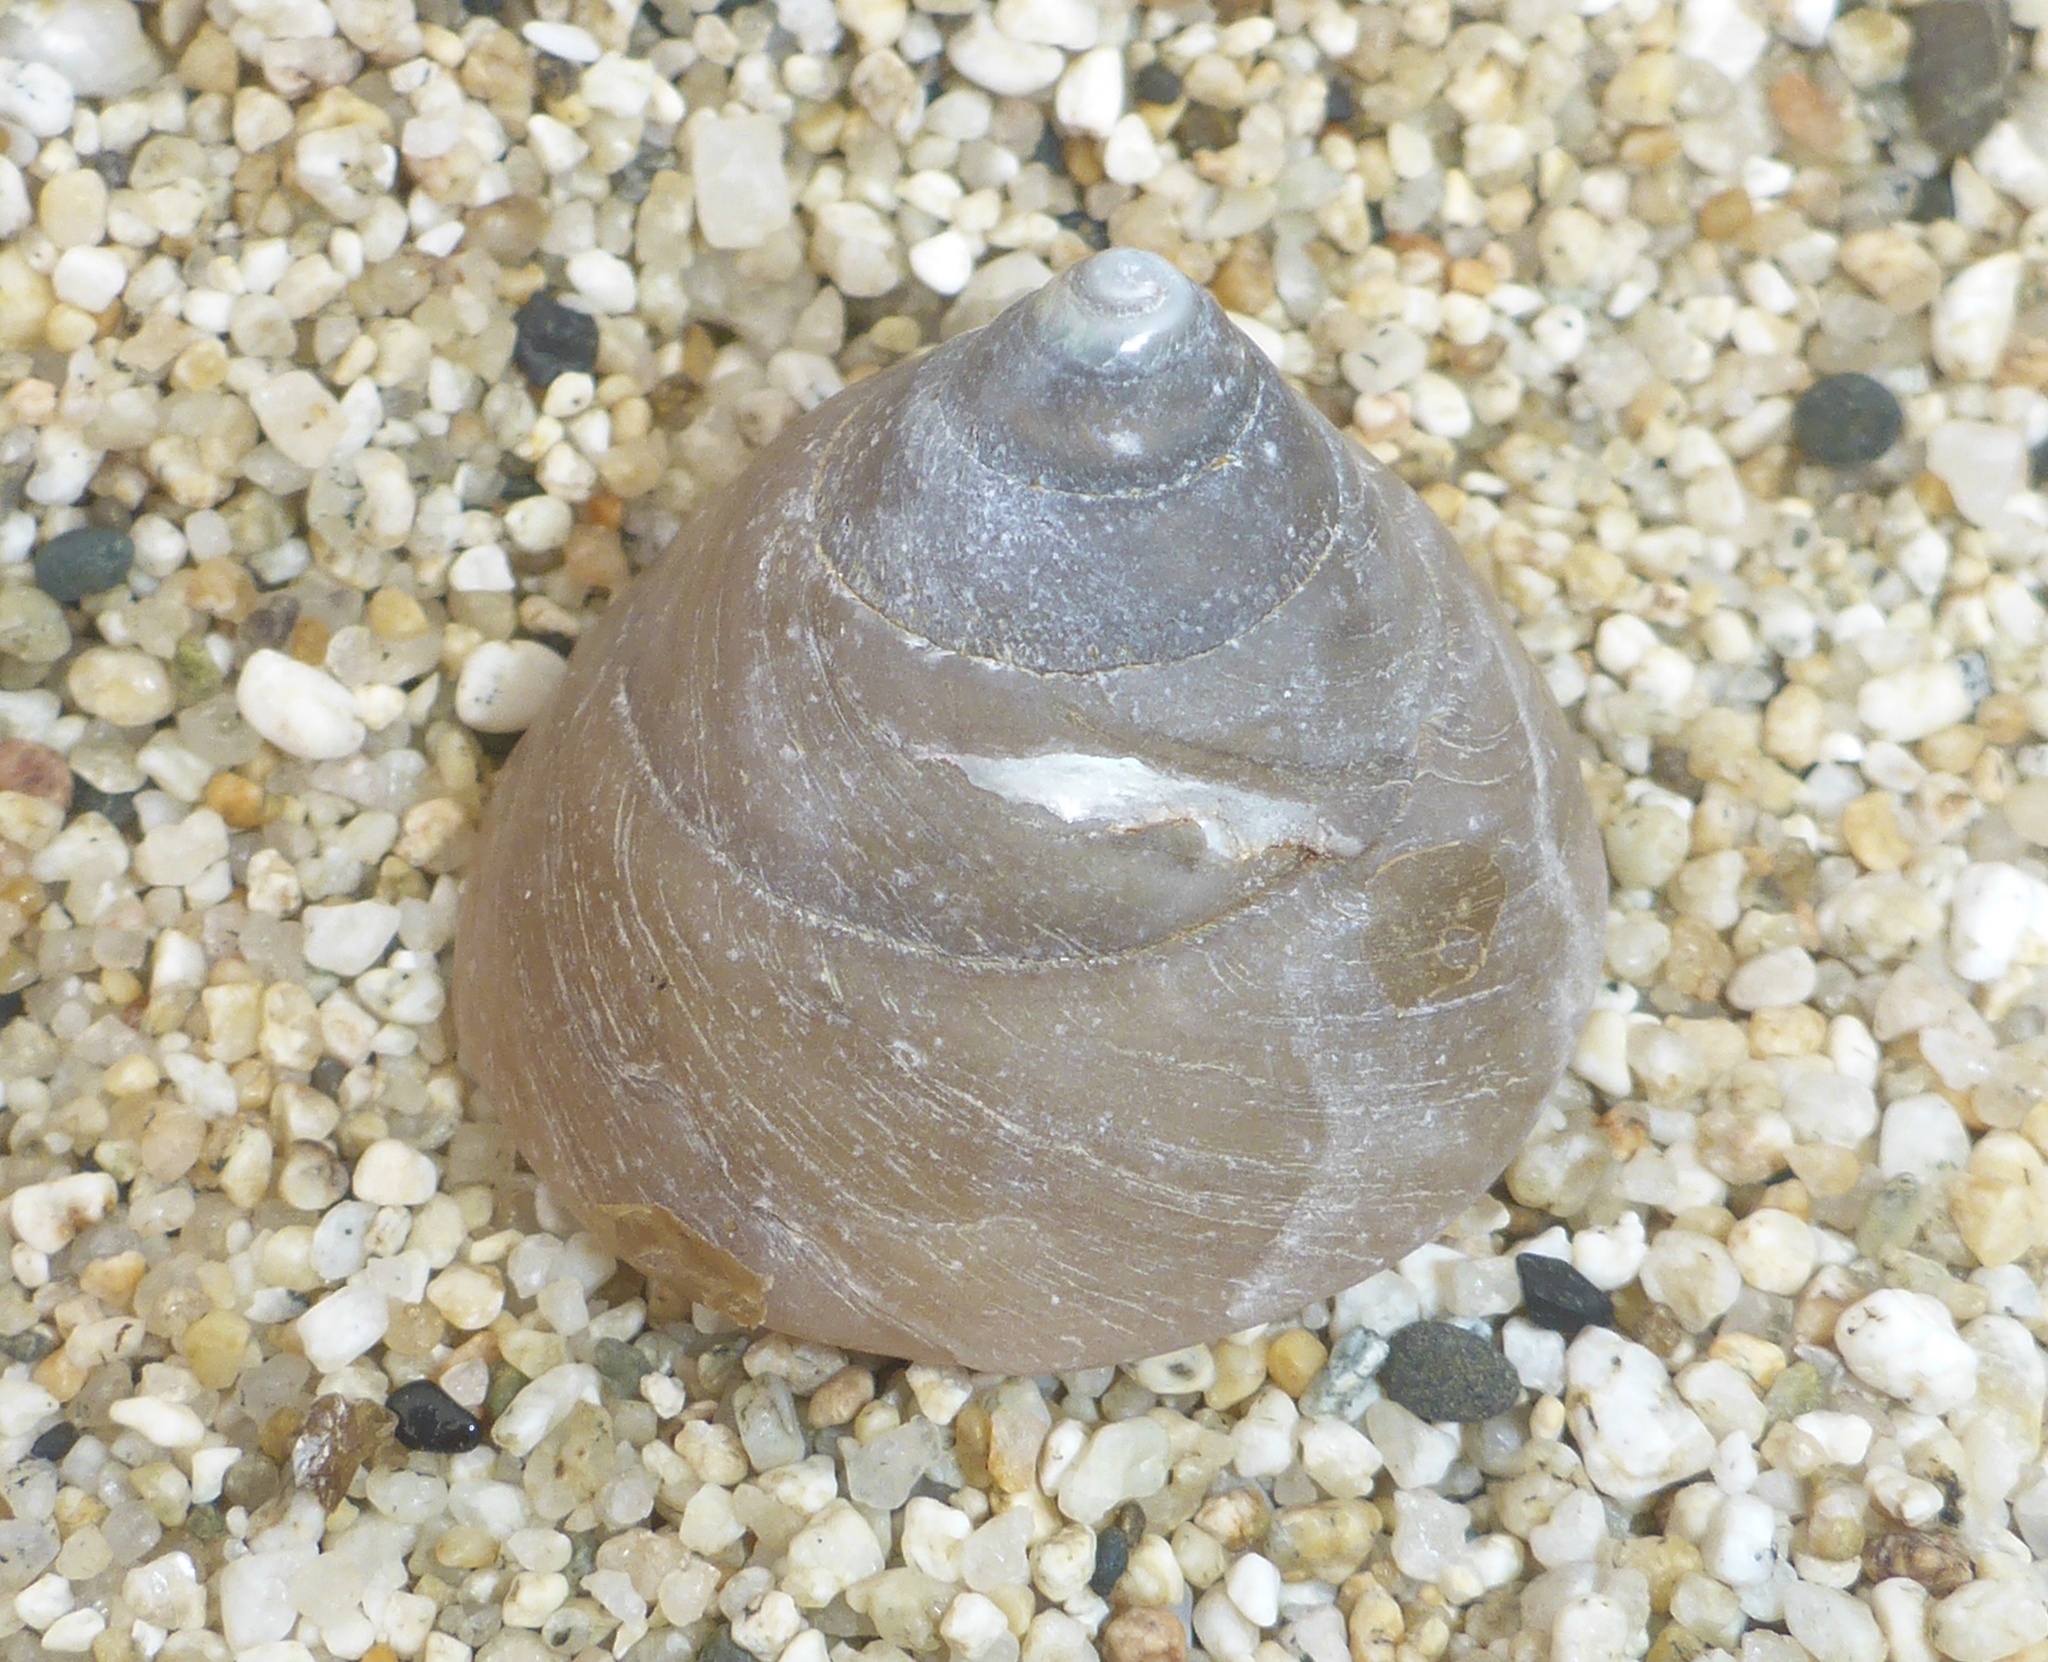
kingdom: Animalia
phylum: Mollusca
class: Gastropoda
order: Trochida
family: Tegulidae
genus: Tegula
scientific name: Tegula montereyi
